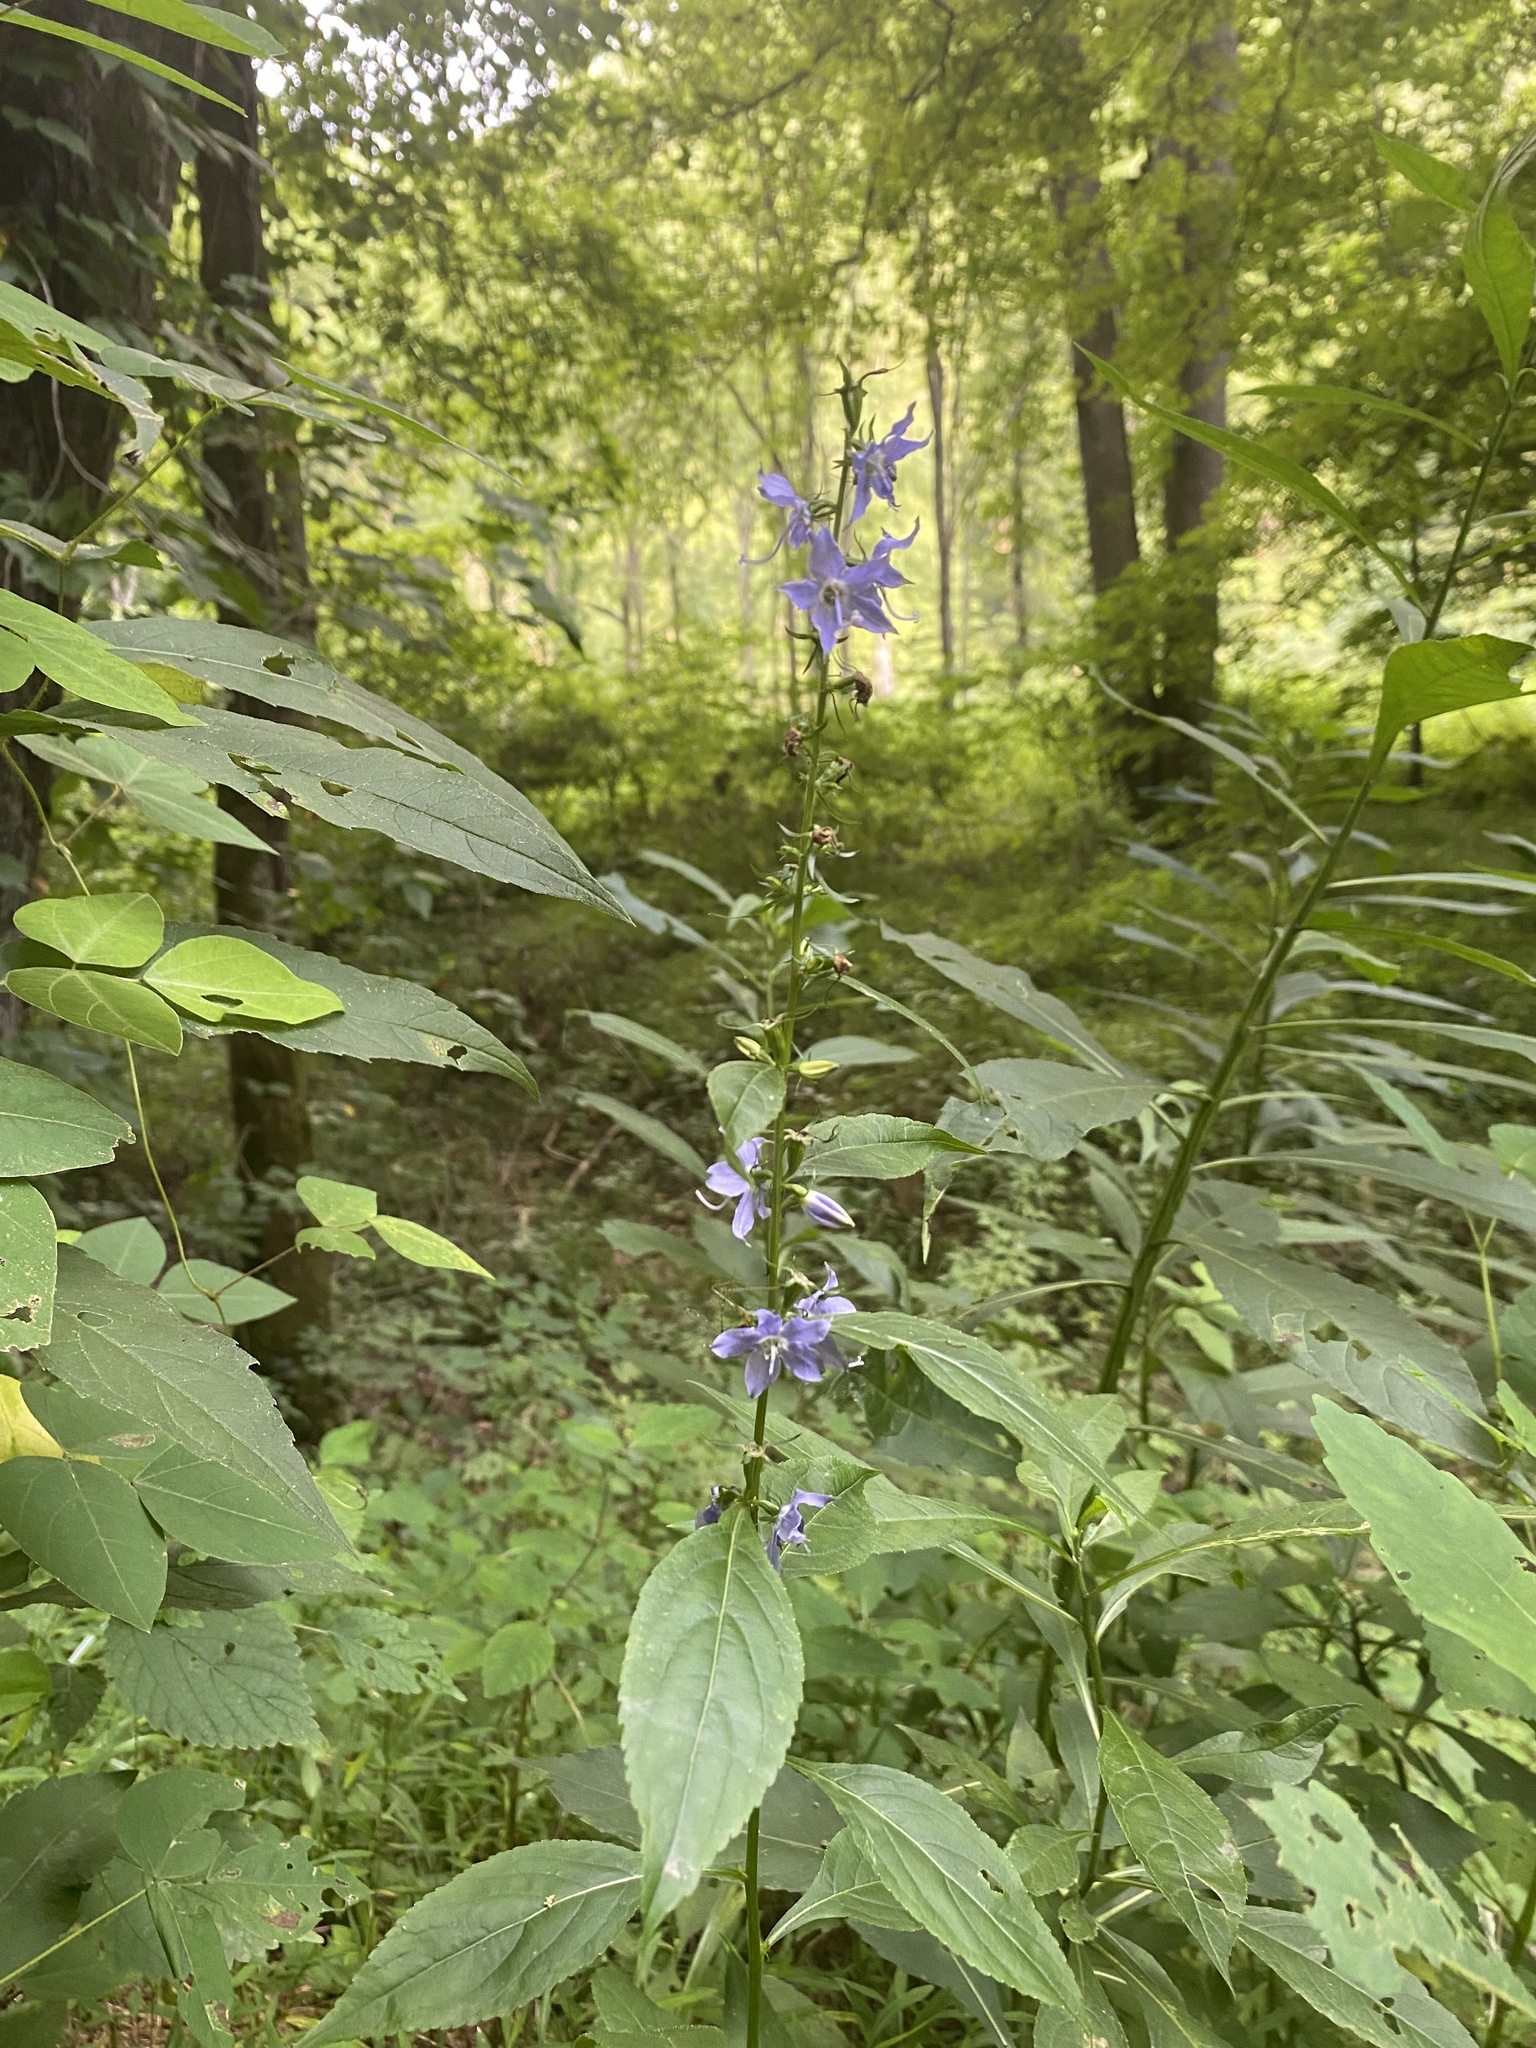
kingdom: Plantae
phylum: Tracheophyta
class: Magnoliopsida
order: Asterales
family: Campanulaceae
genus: Campanulastrum
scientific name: Campanulastrum americanum
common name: American bellflower
